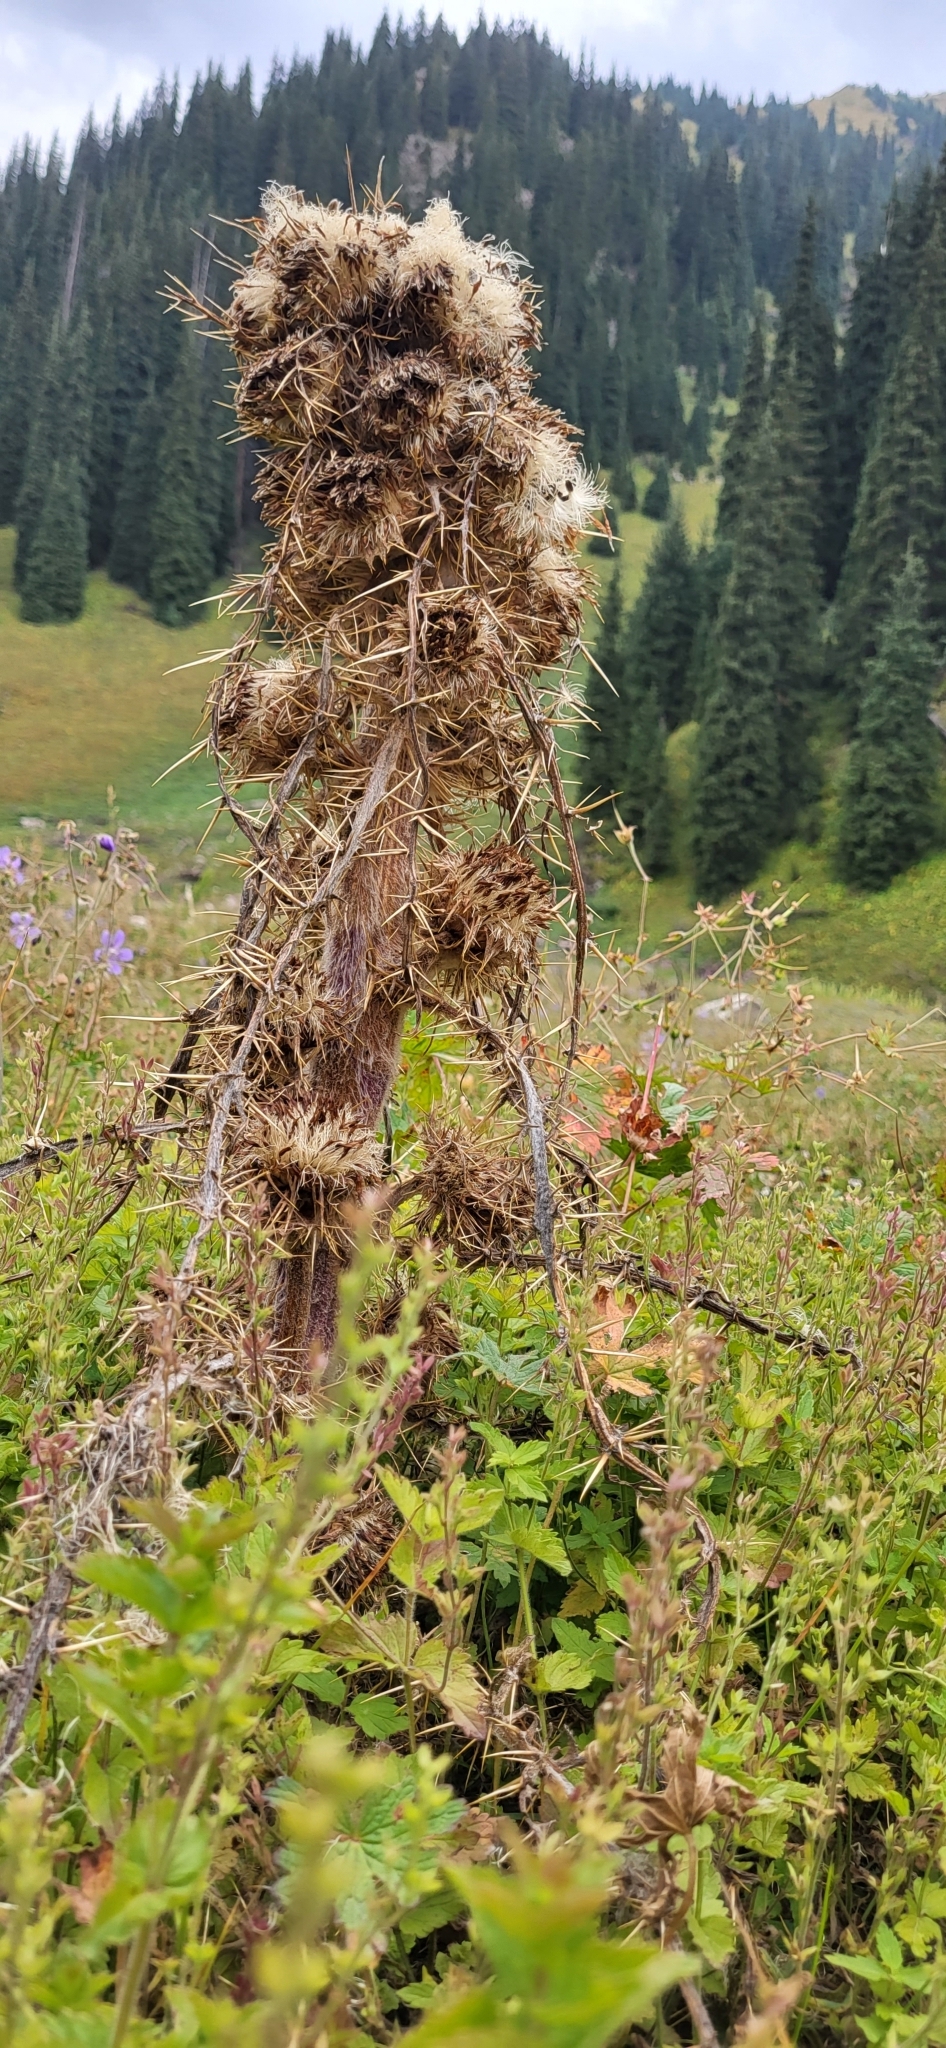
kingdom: Plantae
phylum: Tracheophyta
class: Magnoliopsida
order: Asterales
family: Asteraceae
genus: Arctium
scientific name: Arctium nidulans
